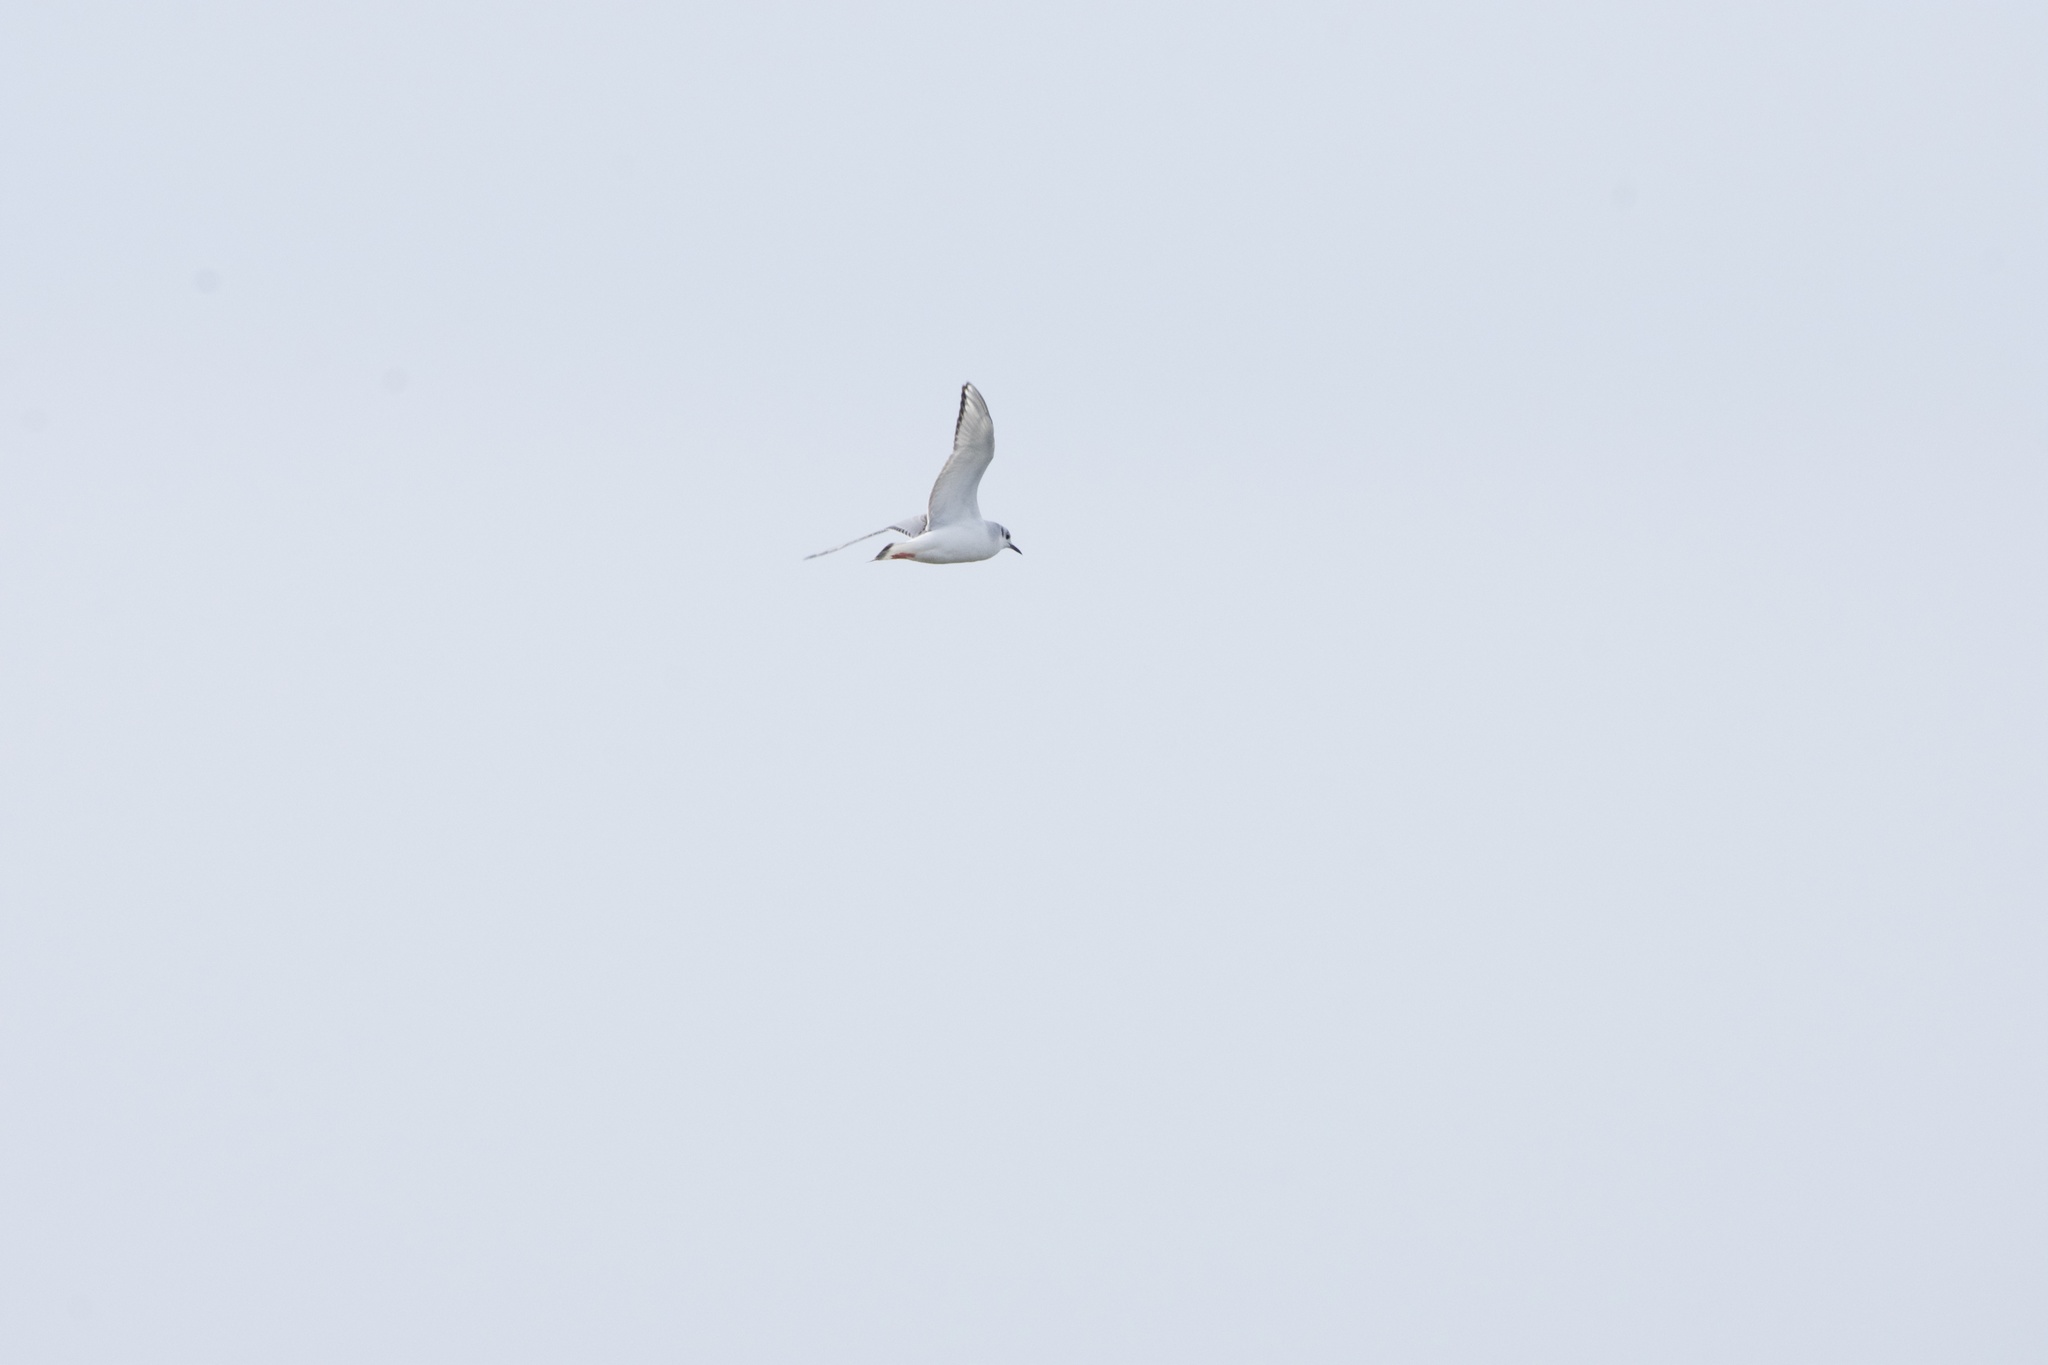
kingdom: Animalia
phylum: Chordata
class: Aves
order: Charadriiformes
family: Laridae
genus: Chroicocephalus
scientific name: Chroicocephalus philadelphia
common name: Bonaparte's gull
